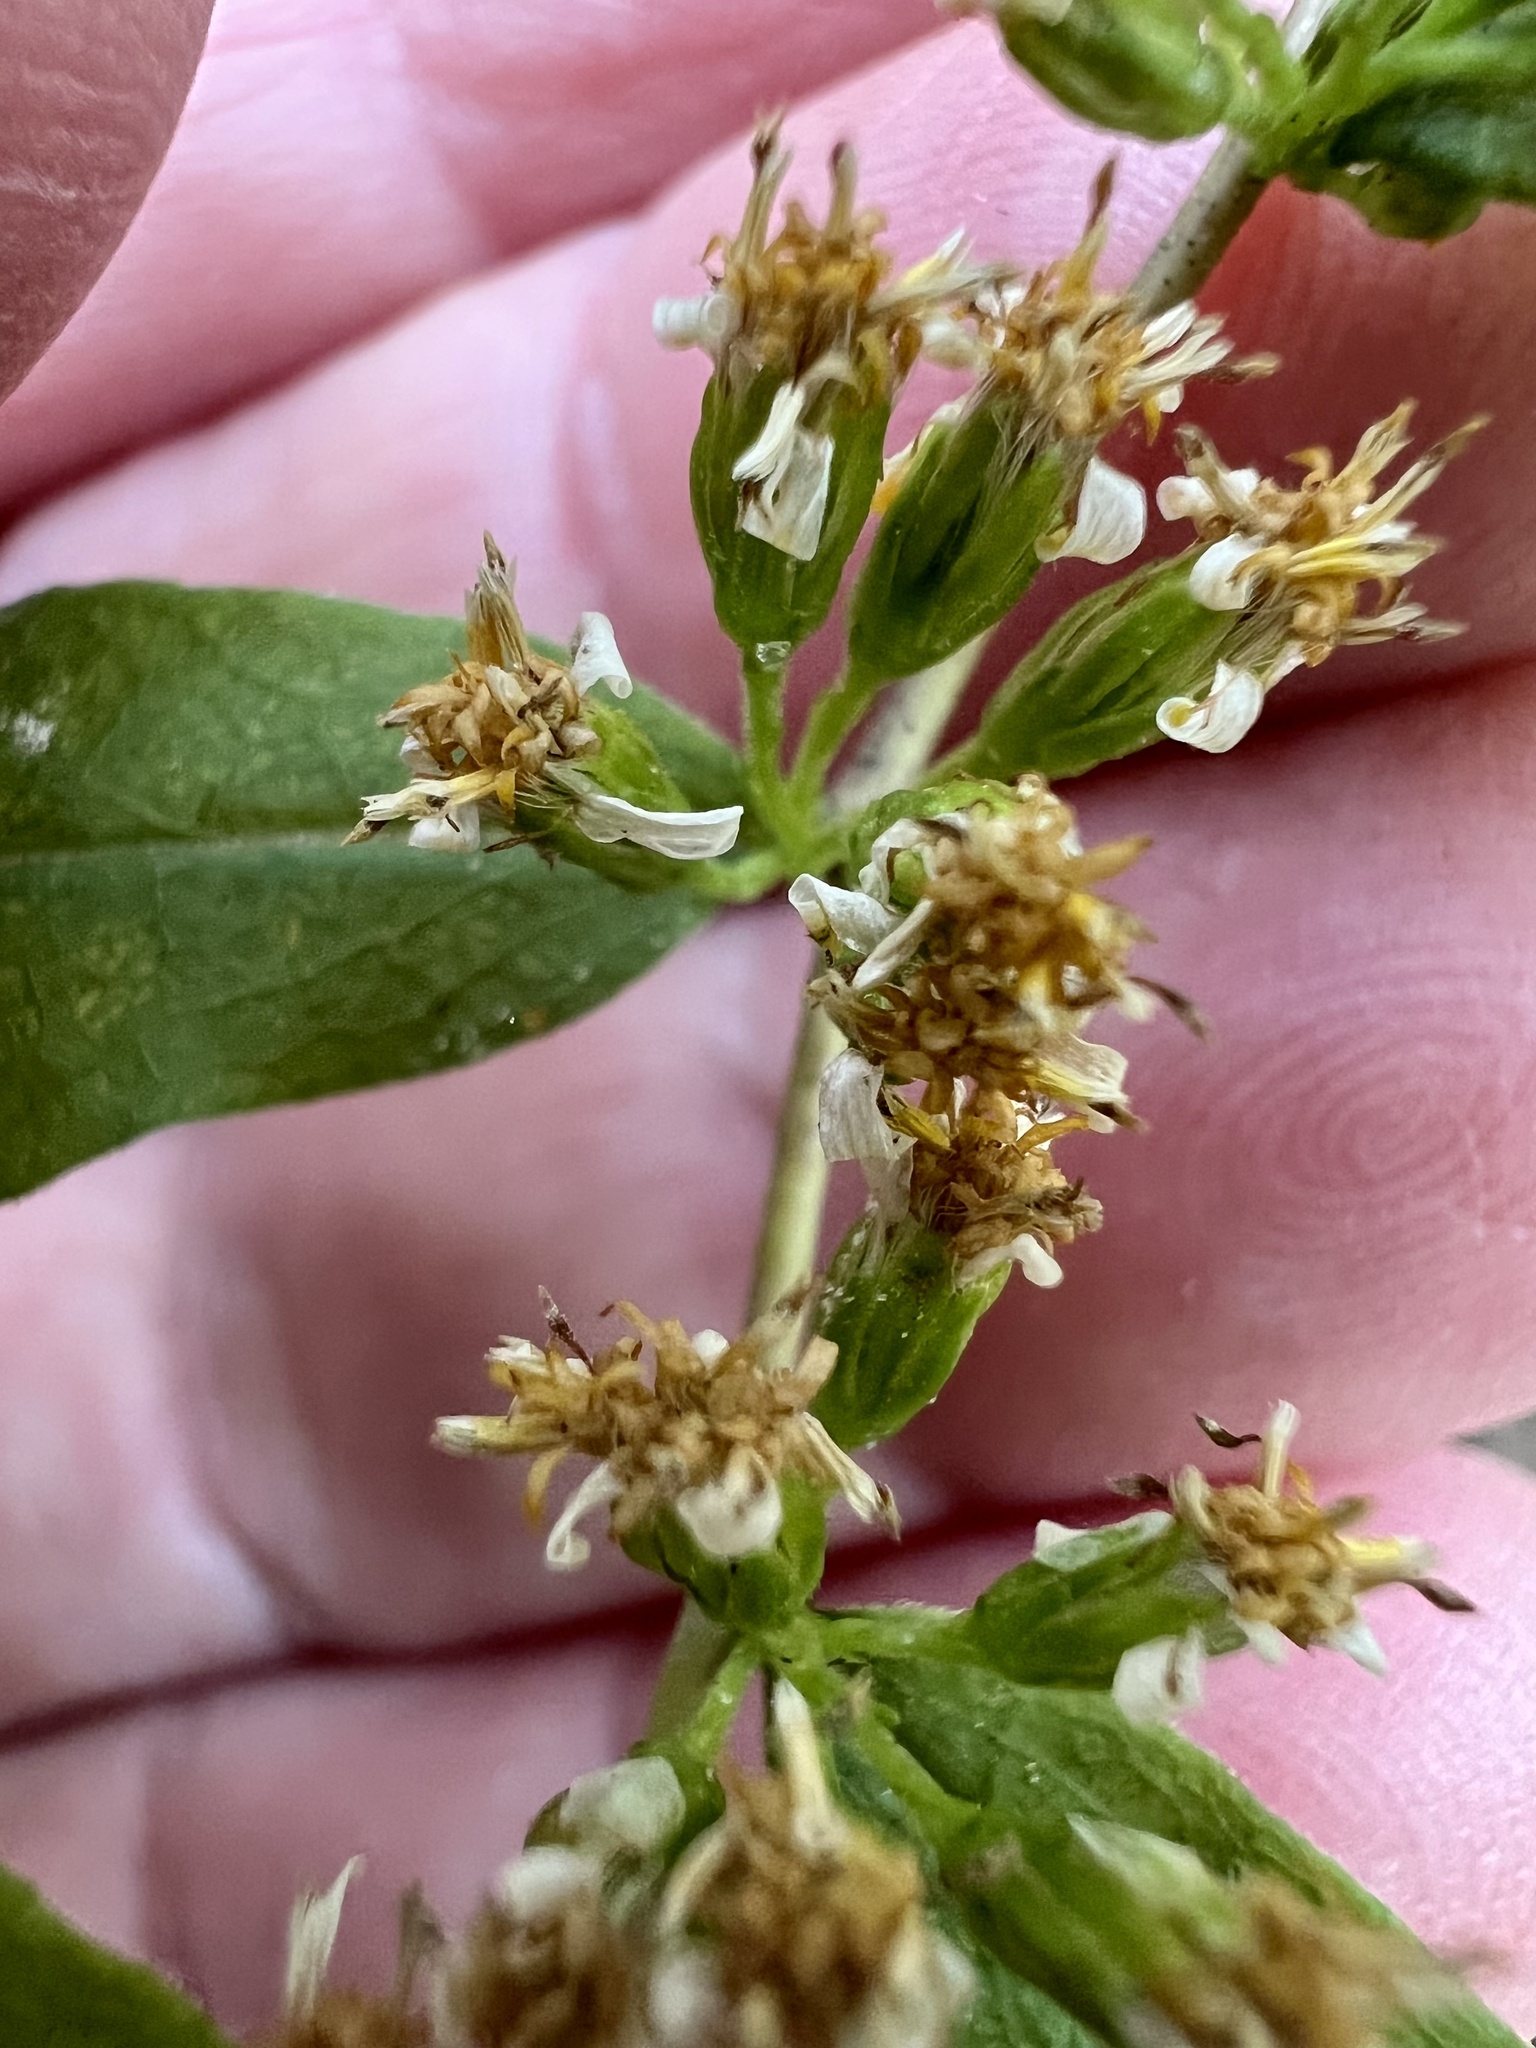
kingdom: Plantae
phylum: Tracheophyta
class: Magnoliopsida
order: Asterales
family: Asteraceae
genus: Solidago
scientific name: Solidago caesia
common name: Woodland goldenrod
